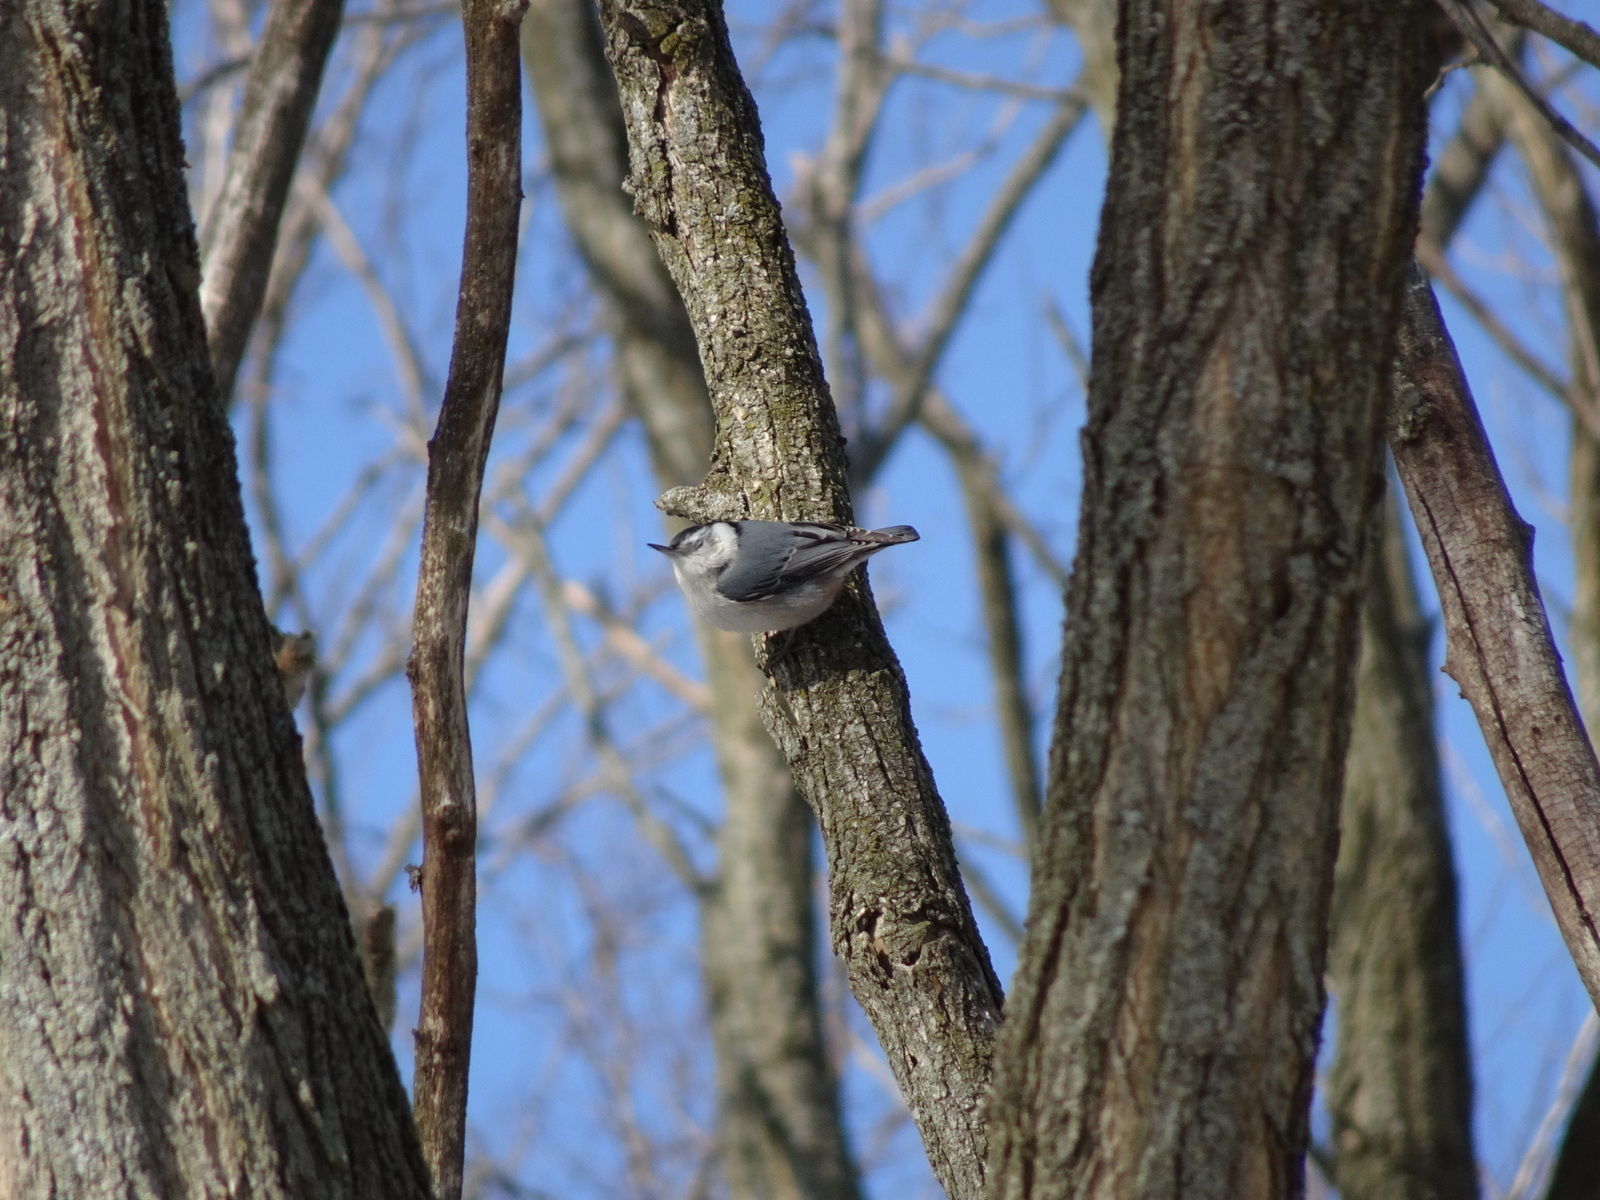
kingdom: Animalia
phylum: Chordata
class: Aves
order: Passeriformes
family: Sittidae
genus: Sitta
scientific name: Sitta carolinensis
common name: White-breasted nuthatch
